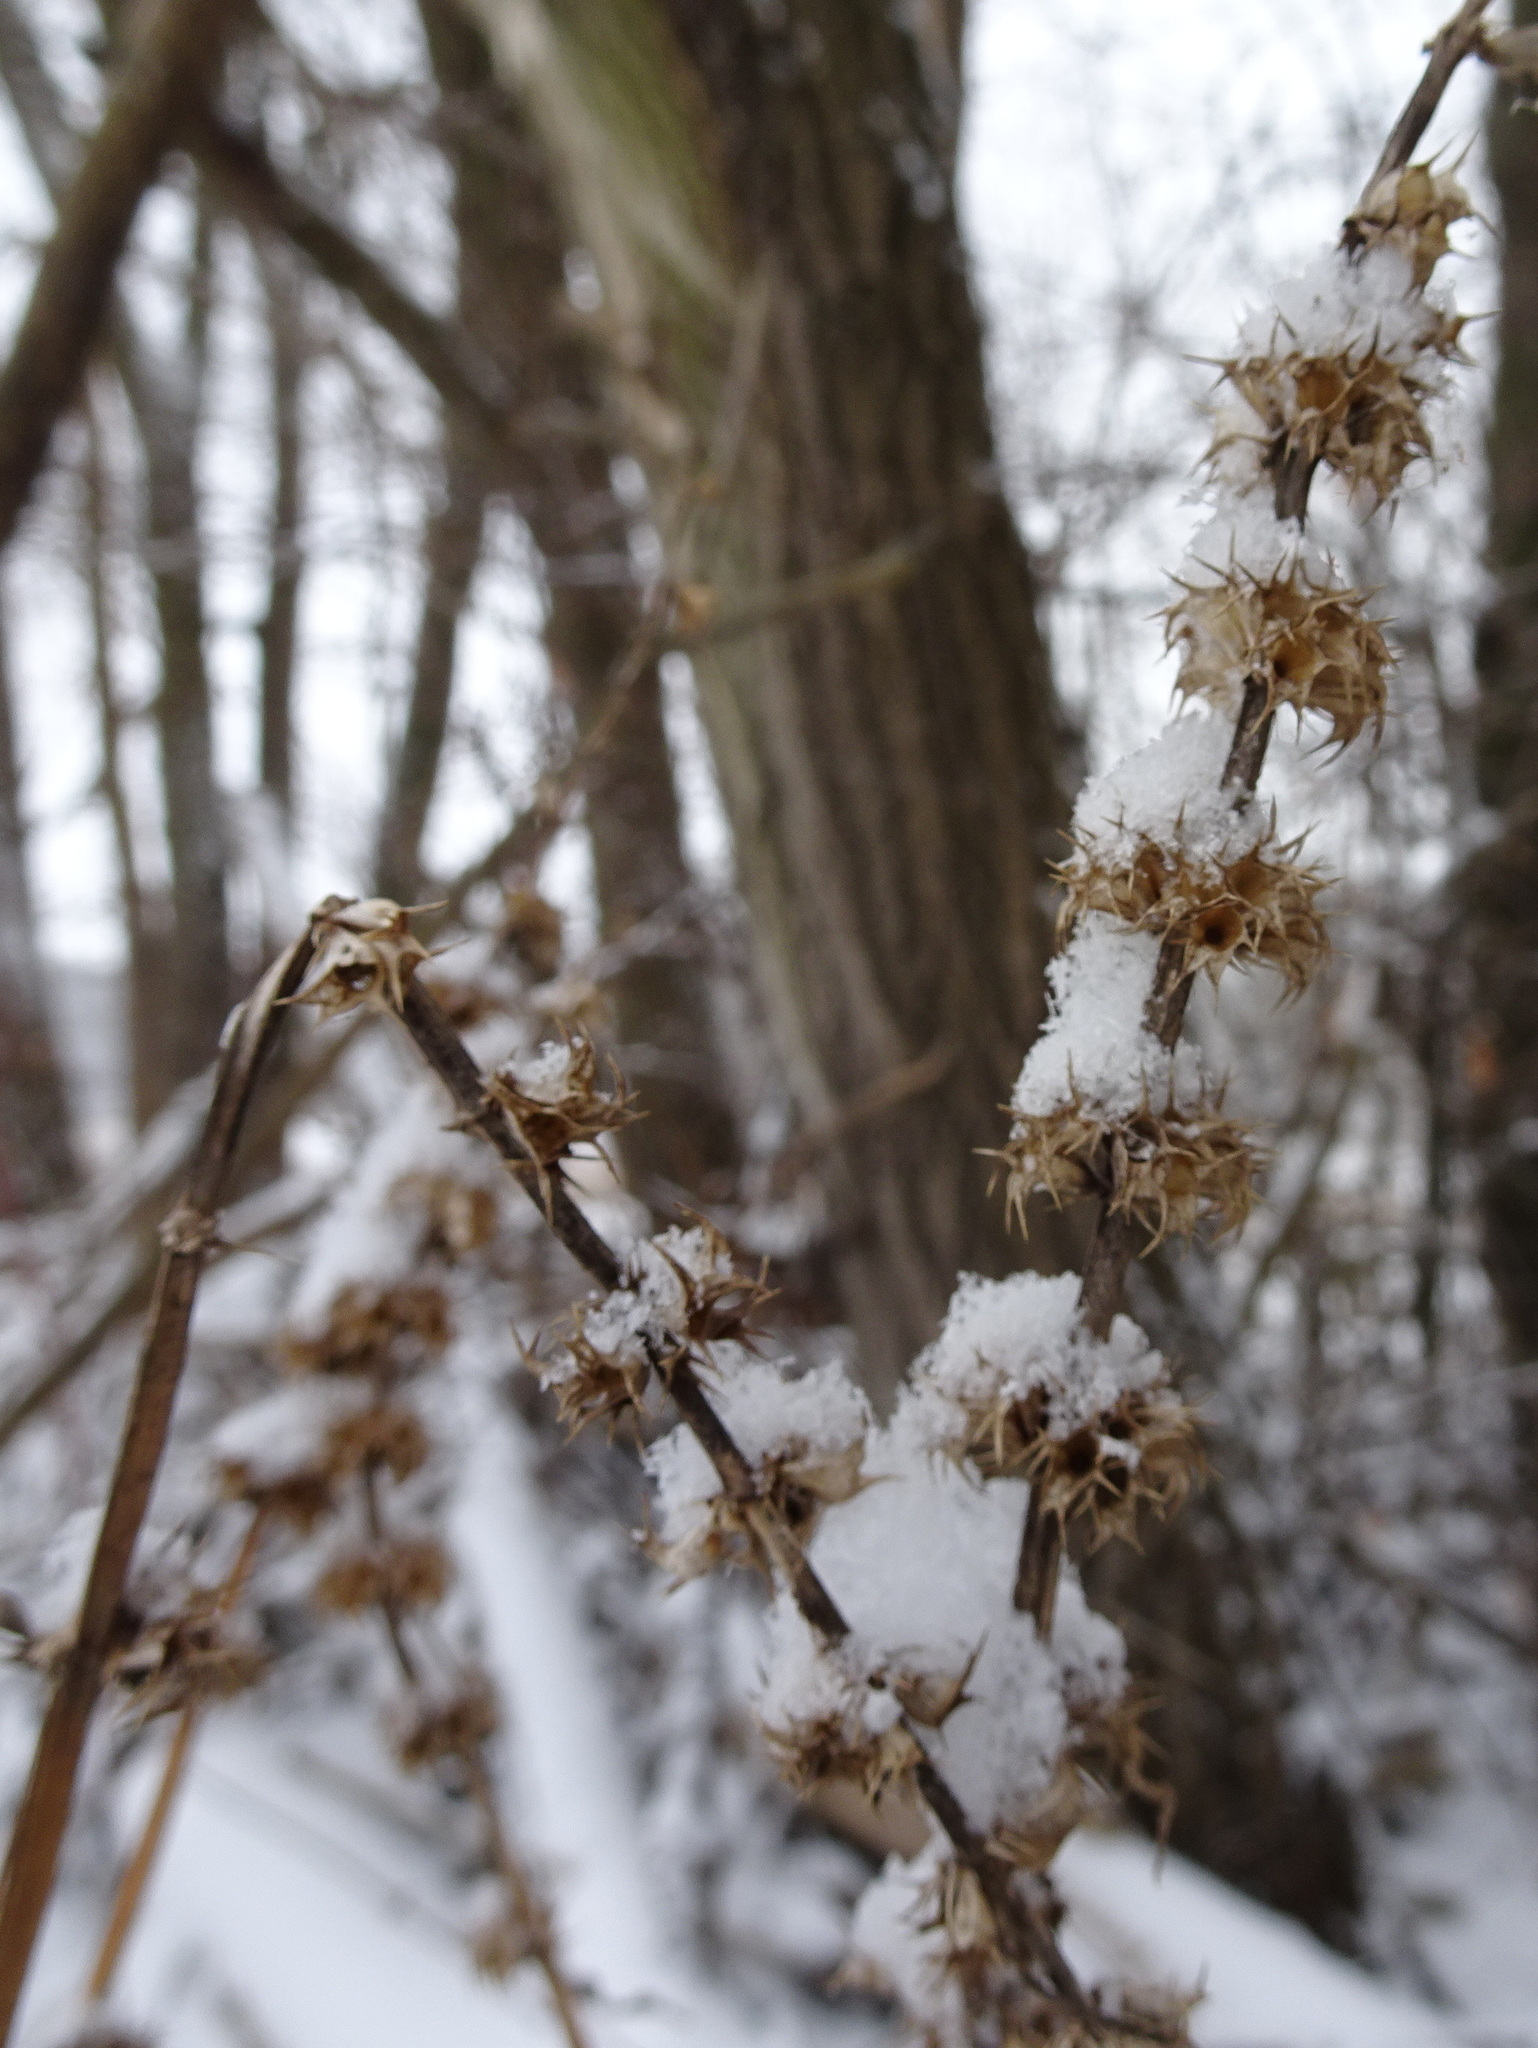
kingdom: Plantae
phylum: Tracheophyta
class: Magnoliopsida
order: Lamiales
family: Lamiaceae
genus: Leonurus
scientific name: Leonurus cardiaca
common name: Motherwort
